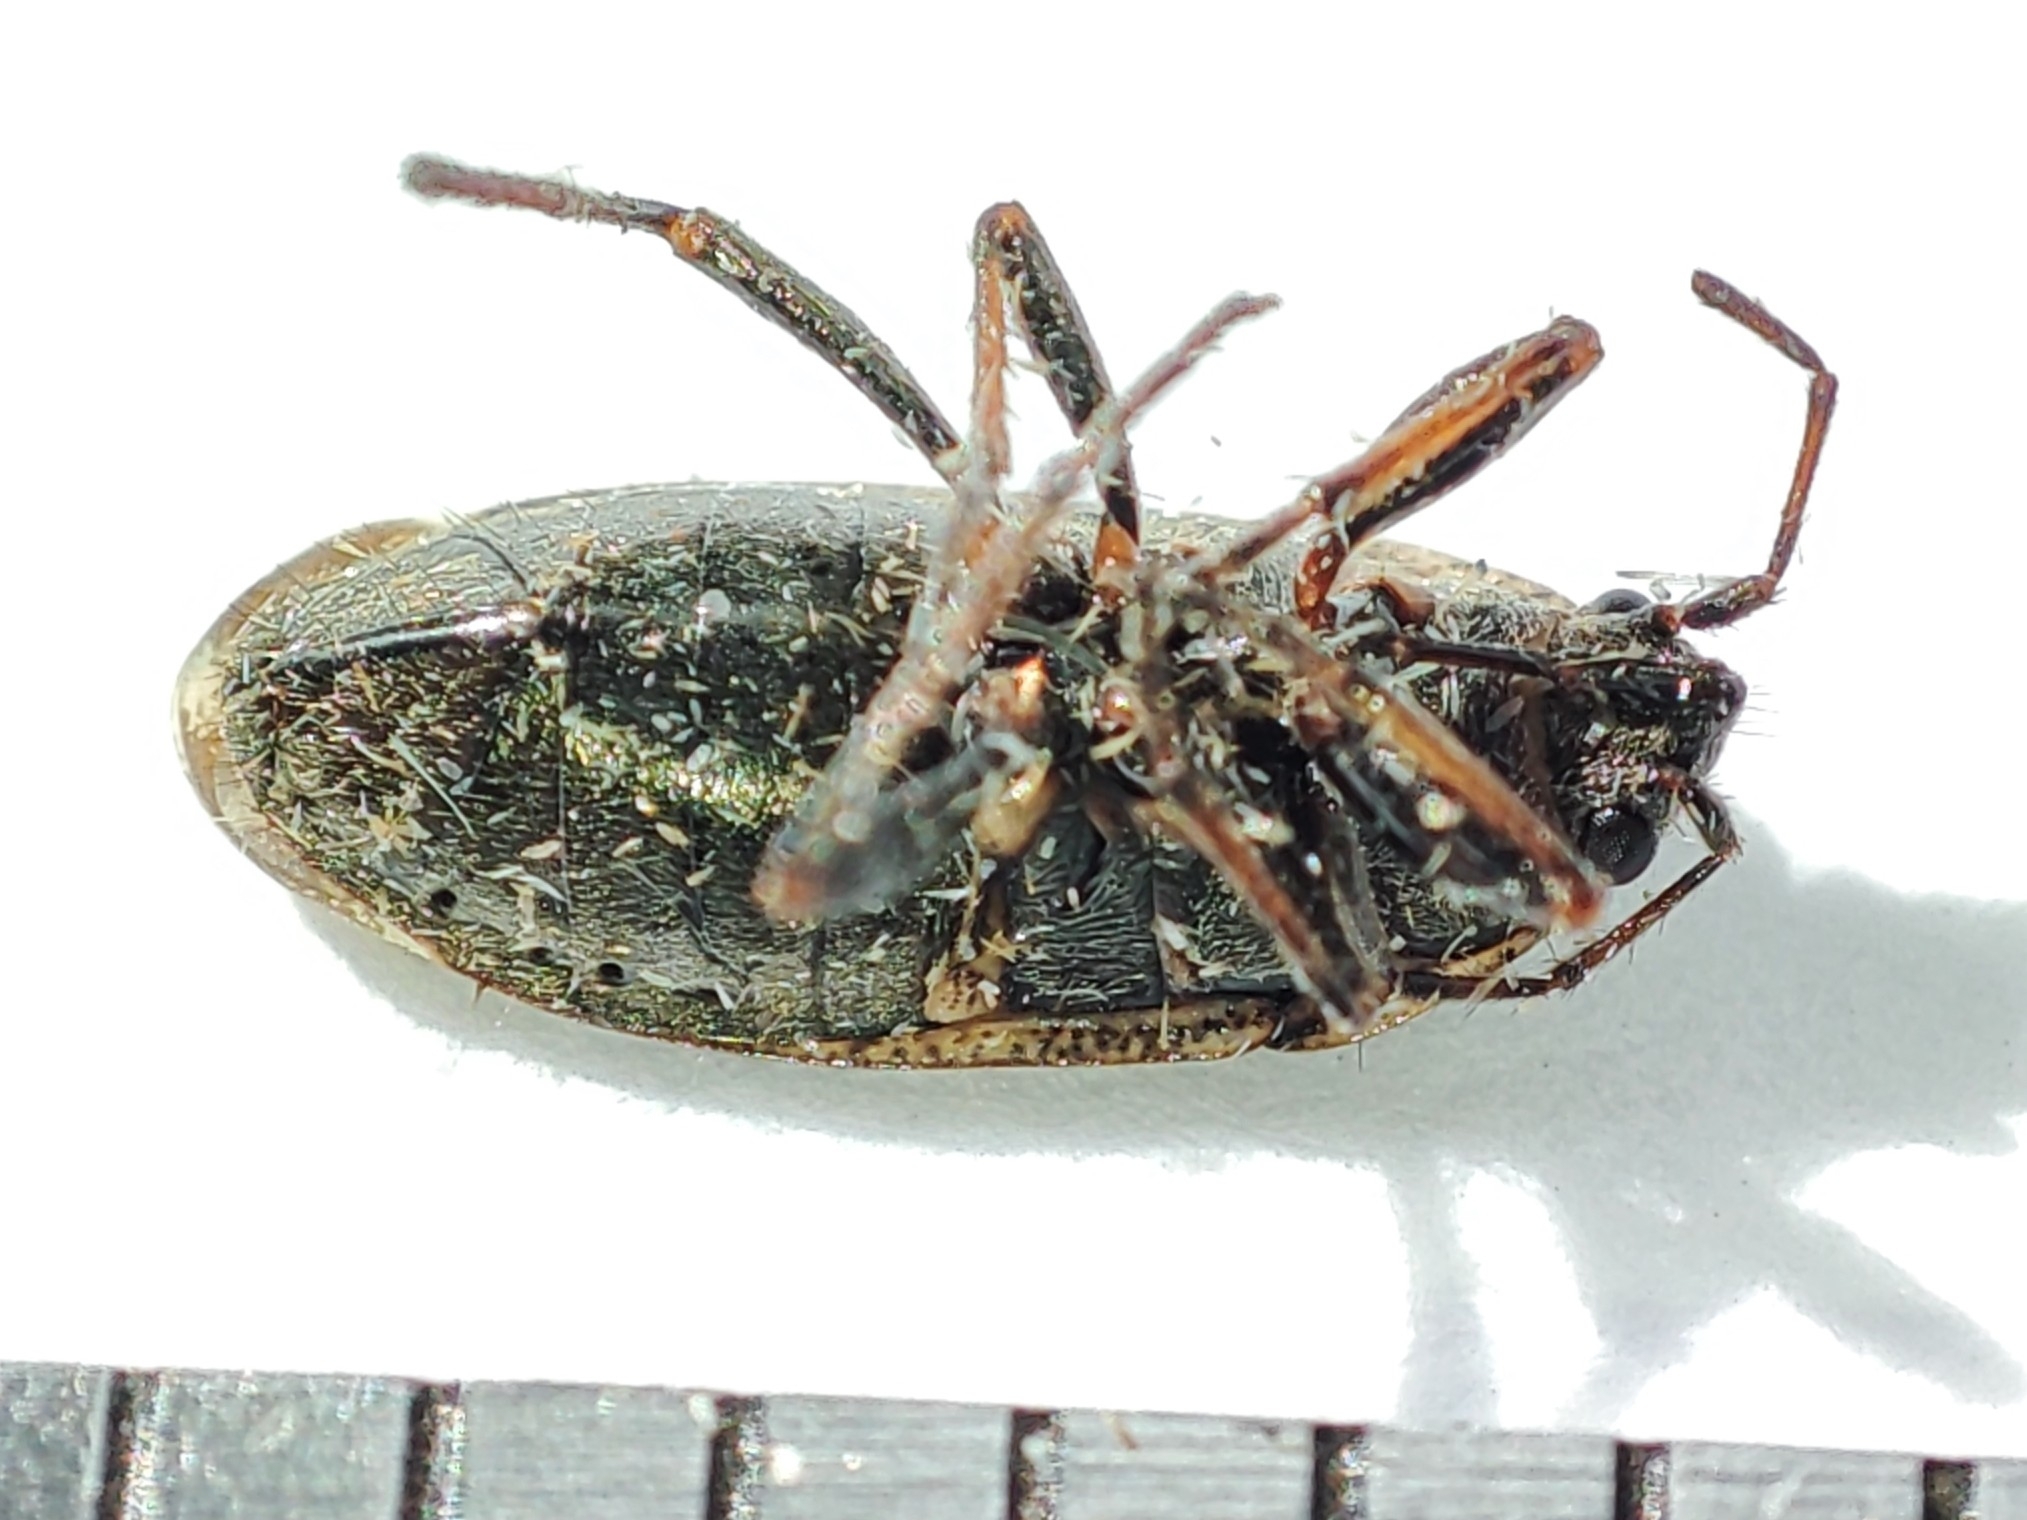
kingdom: Animalia
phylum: Arthropoda
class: Insecta
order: Hemiptera
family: Rhyparochromidae
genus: Sphragisticus
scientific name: Sphragisticus nebulosus
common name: Dirt-colored seed bug
